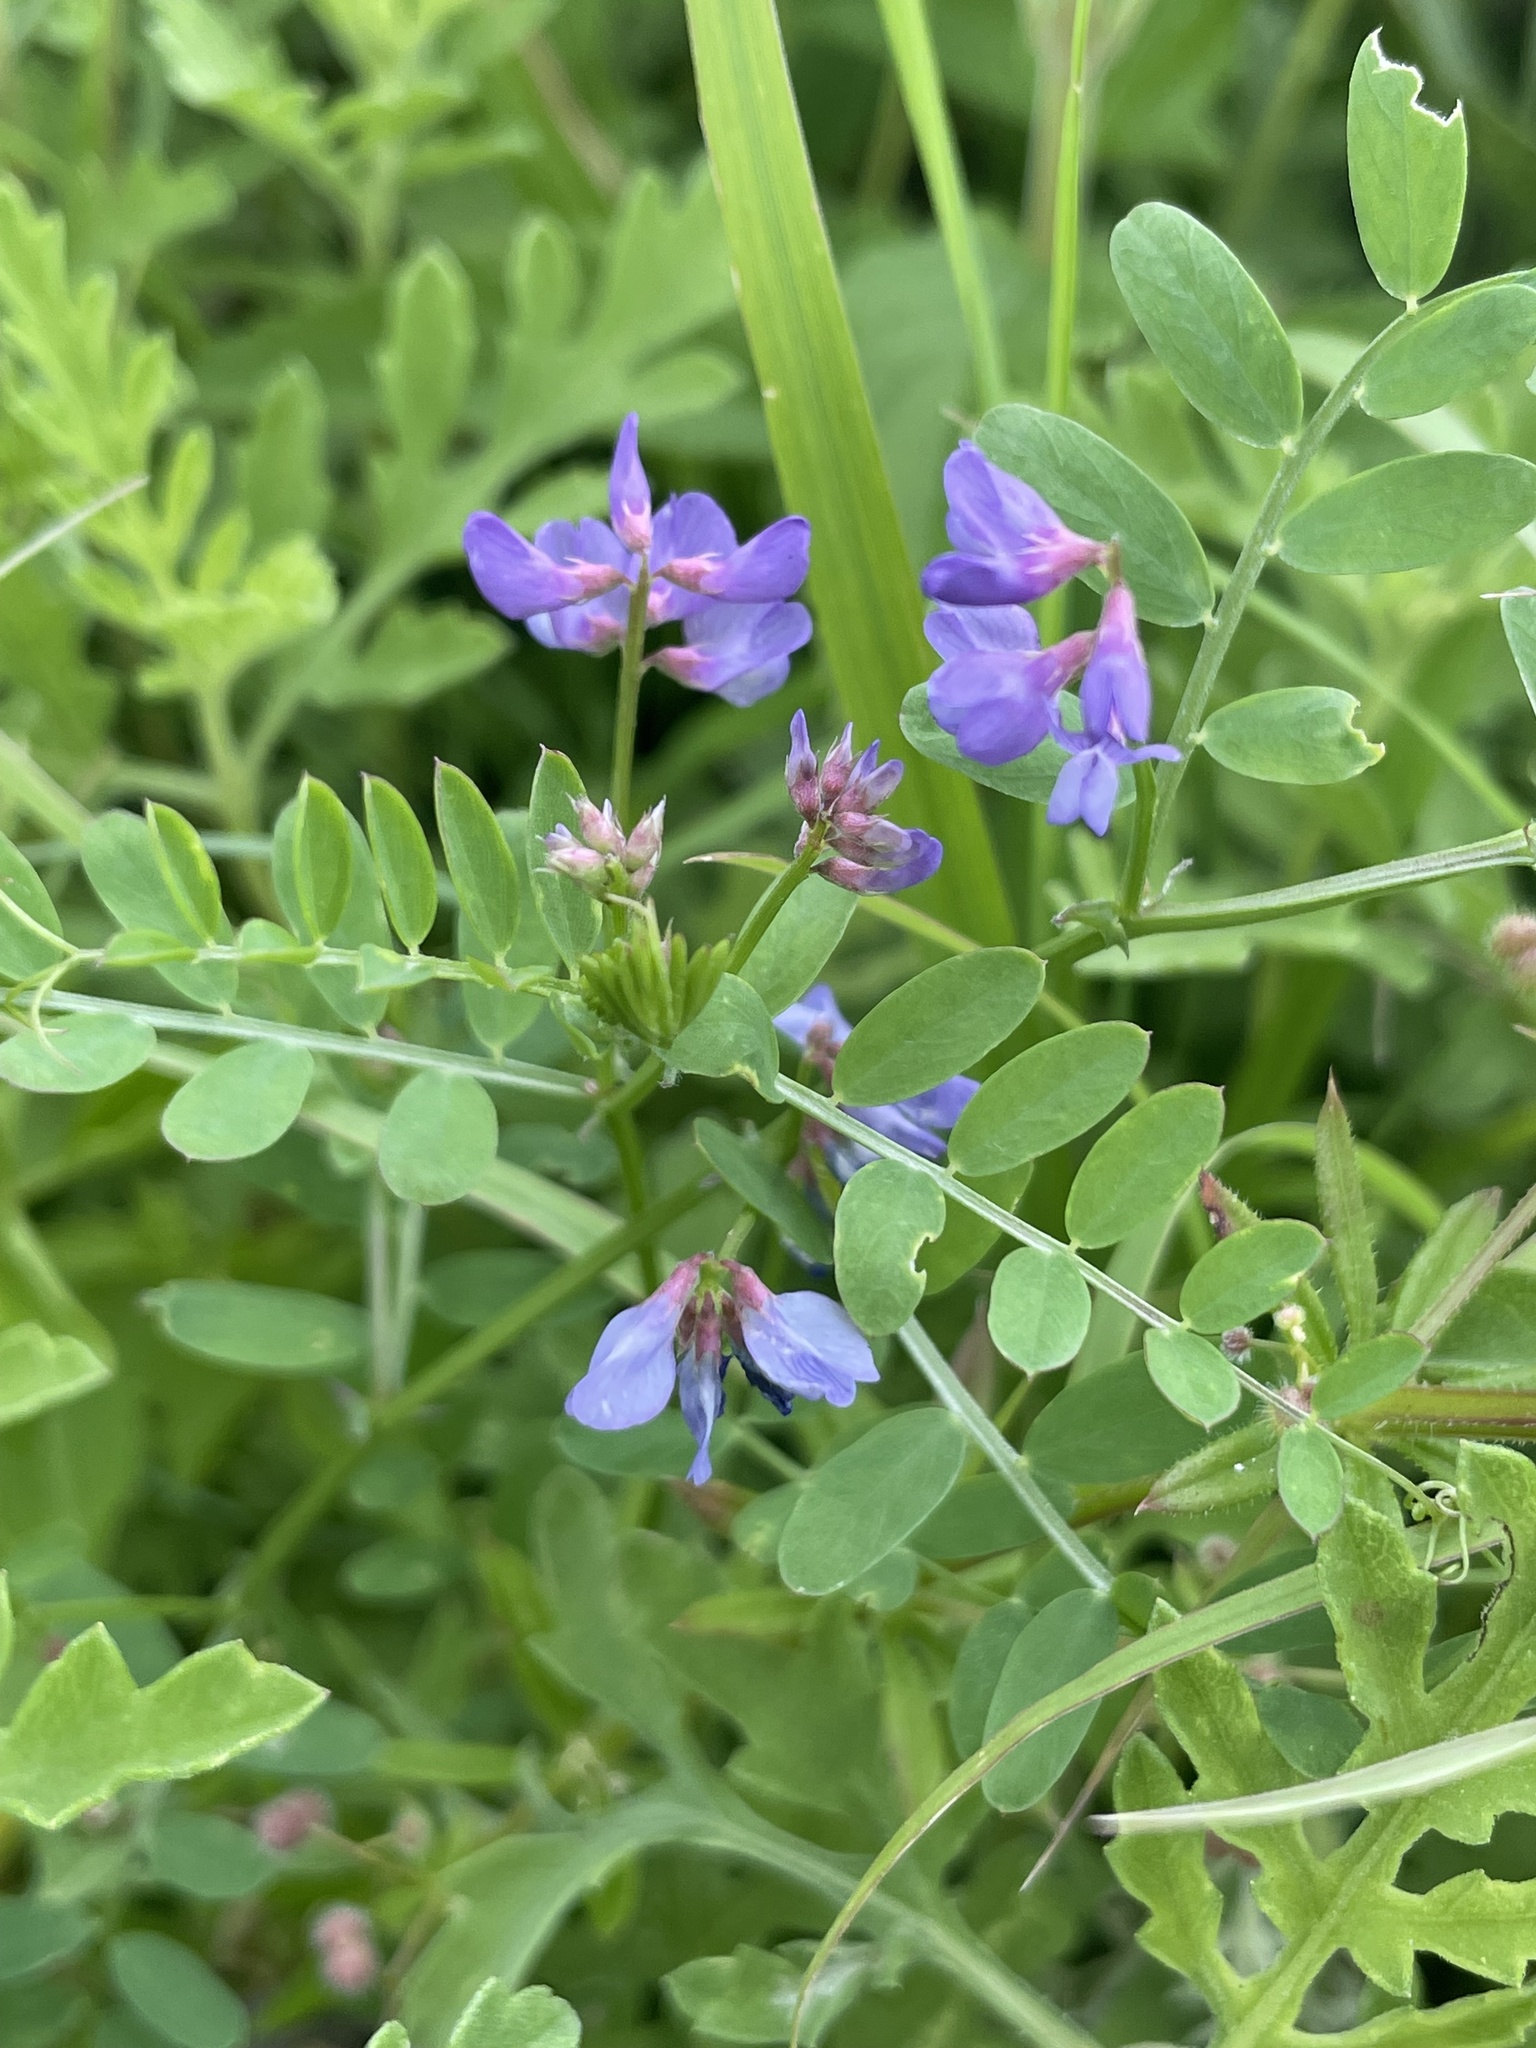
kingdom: Plantae
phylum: Tracheophyta
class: Magnoliopsida
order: Fabales
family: Fabaceae
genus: Vicia
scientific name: Vicia ludoviciana
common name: Louisiana vetch
